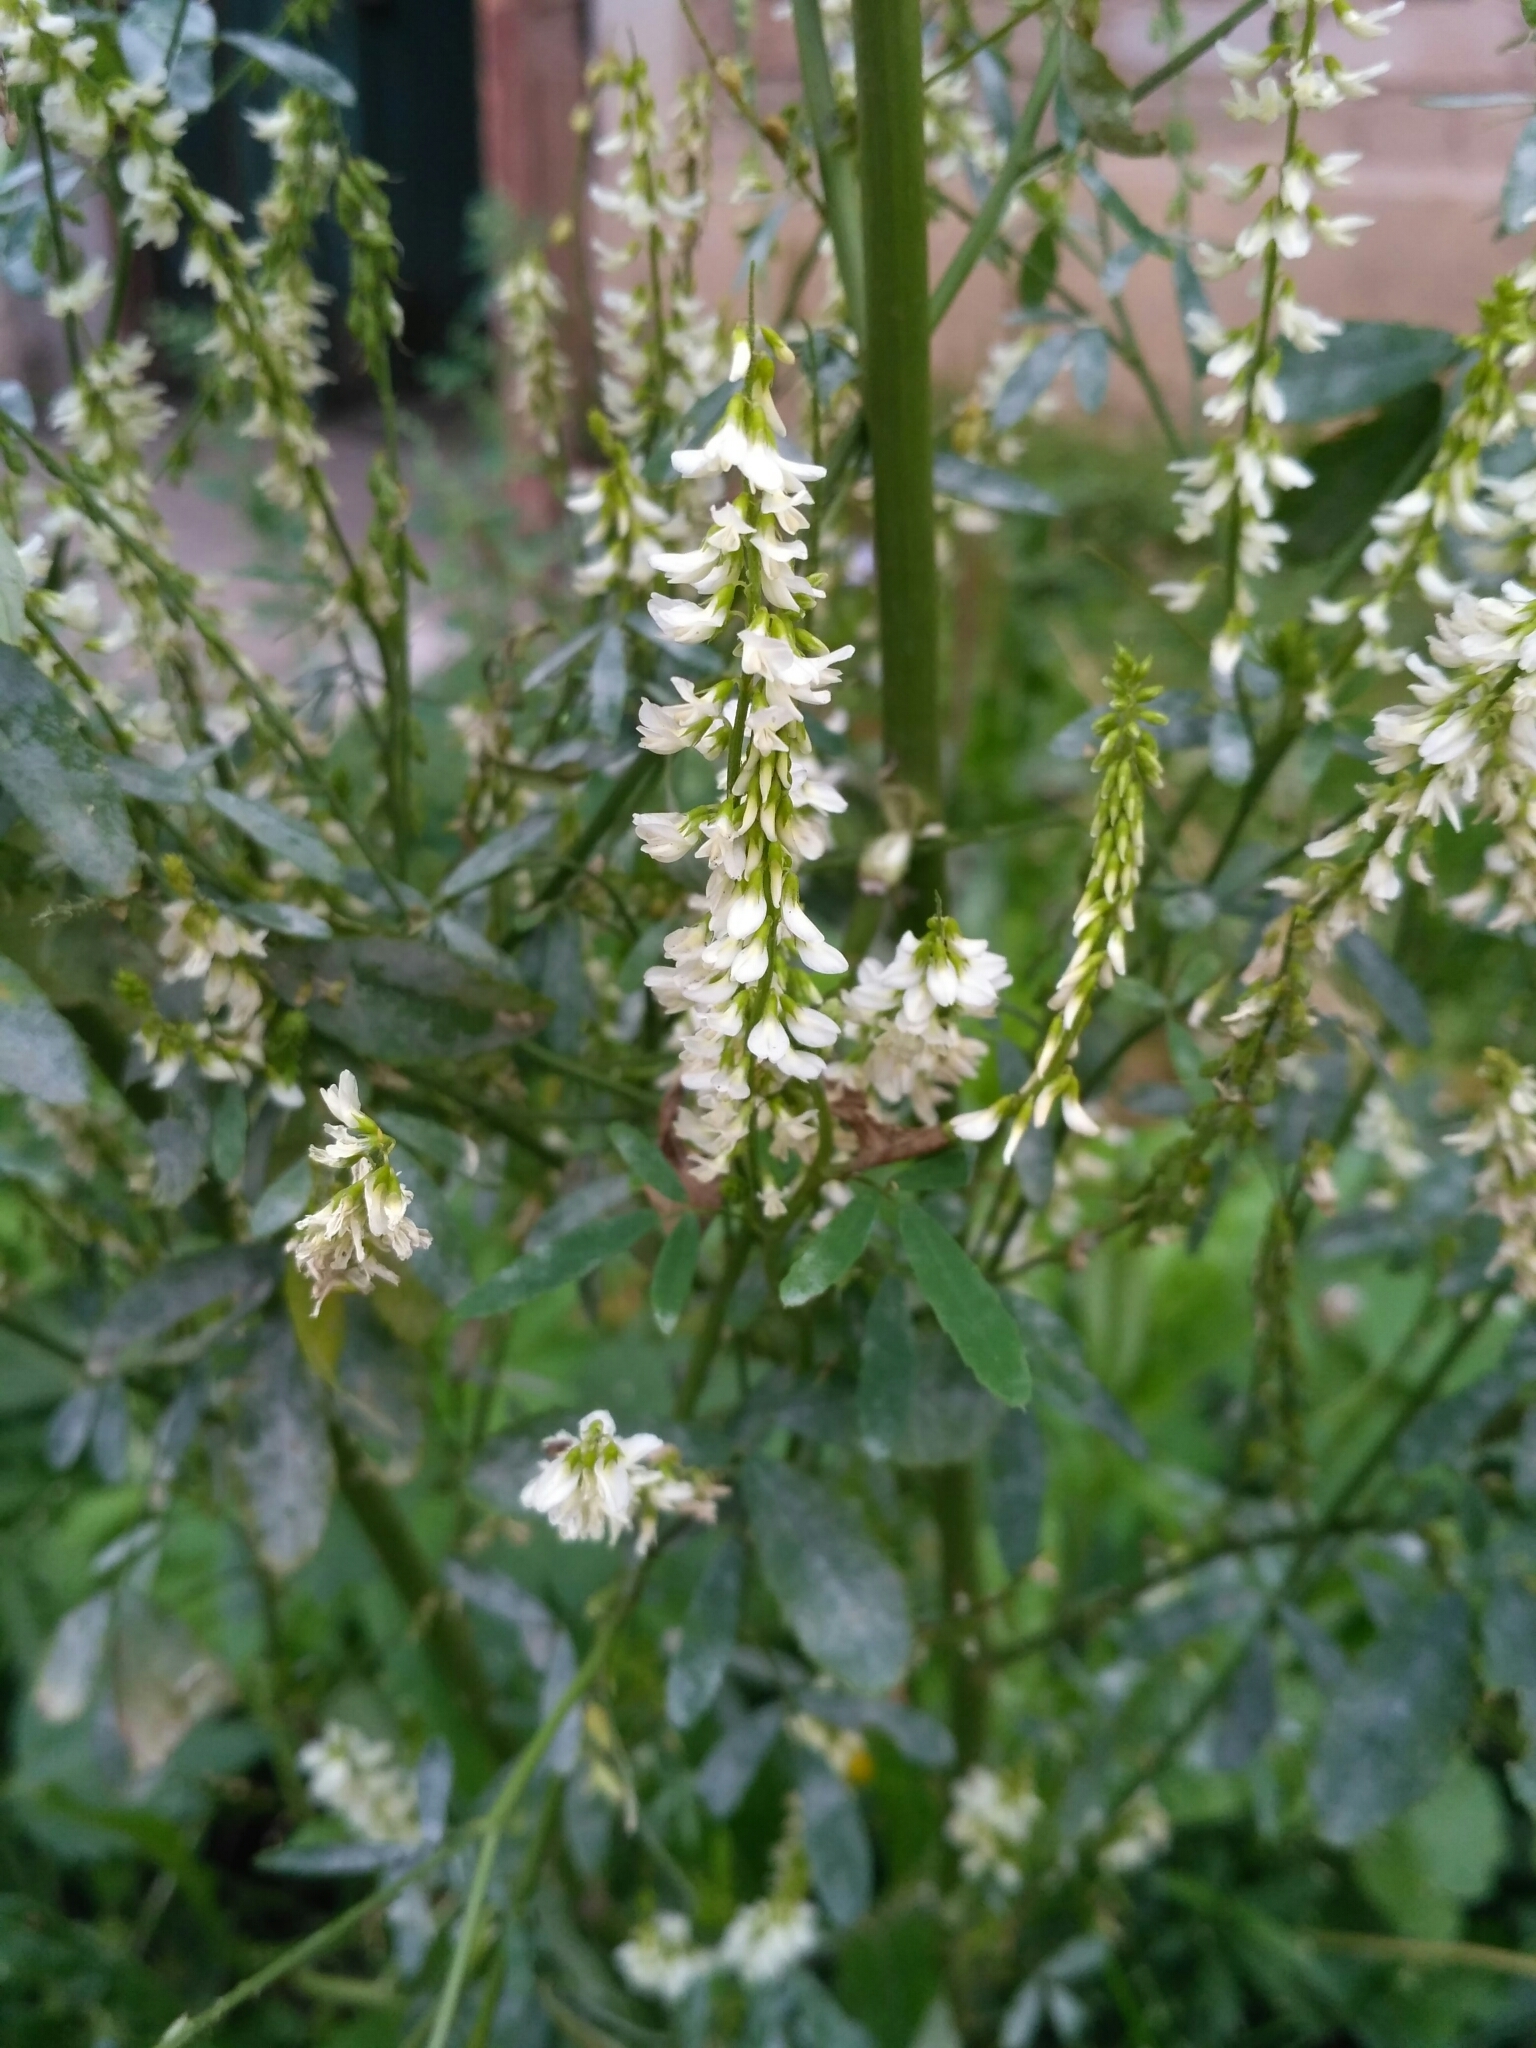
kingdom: Plantae
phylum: Tracheophyta
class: Magnoliopsida
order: Fabales
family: Fabaceae
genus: Melilotus
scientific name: Melilotus albus
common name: White melilot
